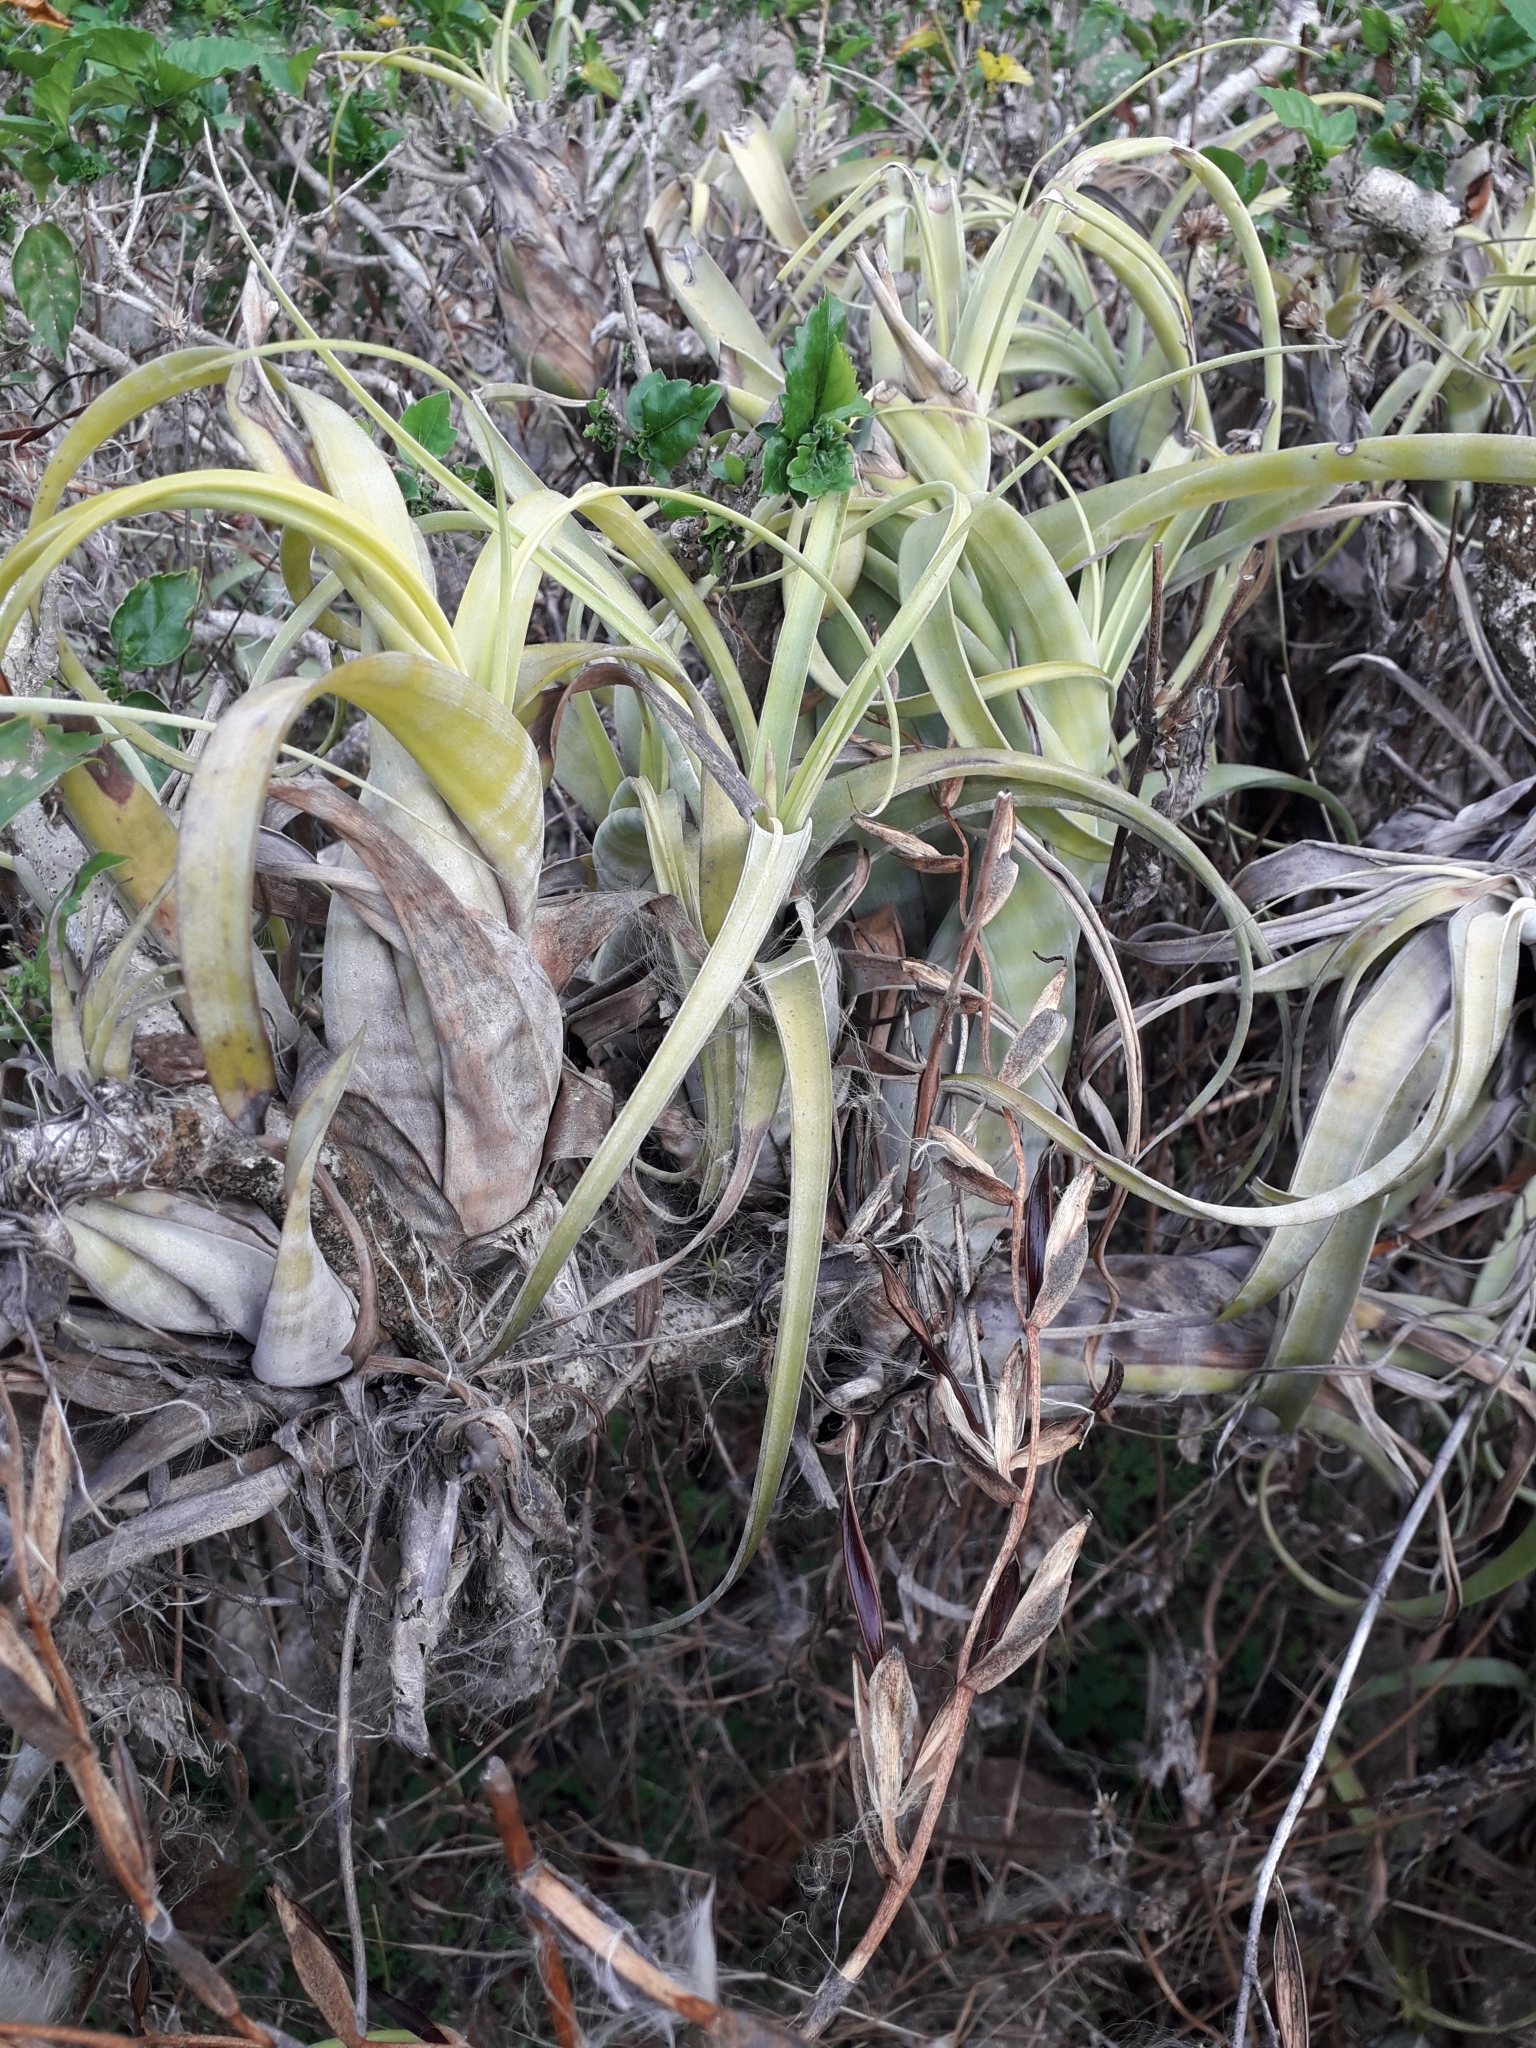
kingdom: Plantae
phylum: Tracheophyta
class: Liliopsida
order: Poales
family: Bromeliaceae
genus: Tillandsia
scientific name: Tillandsia flexuosa
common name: Banded airplant
